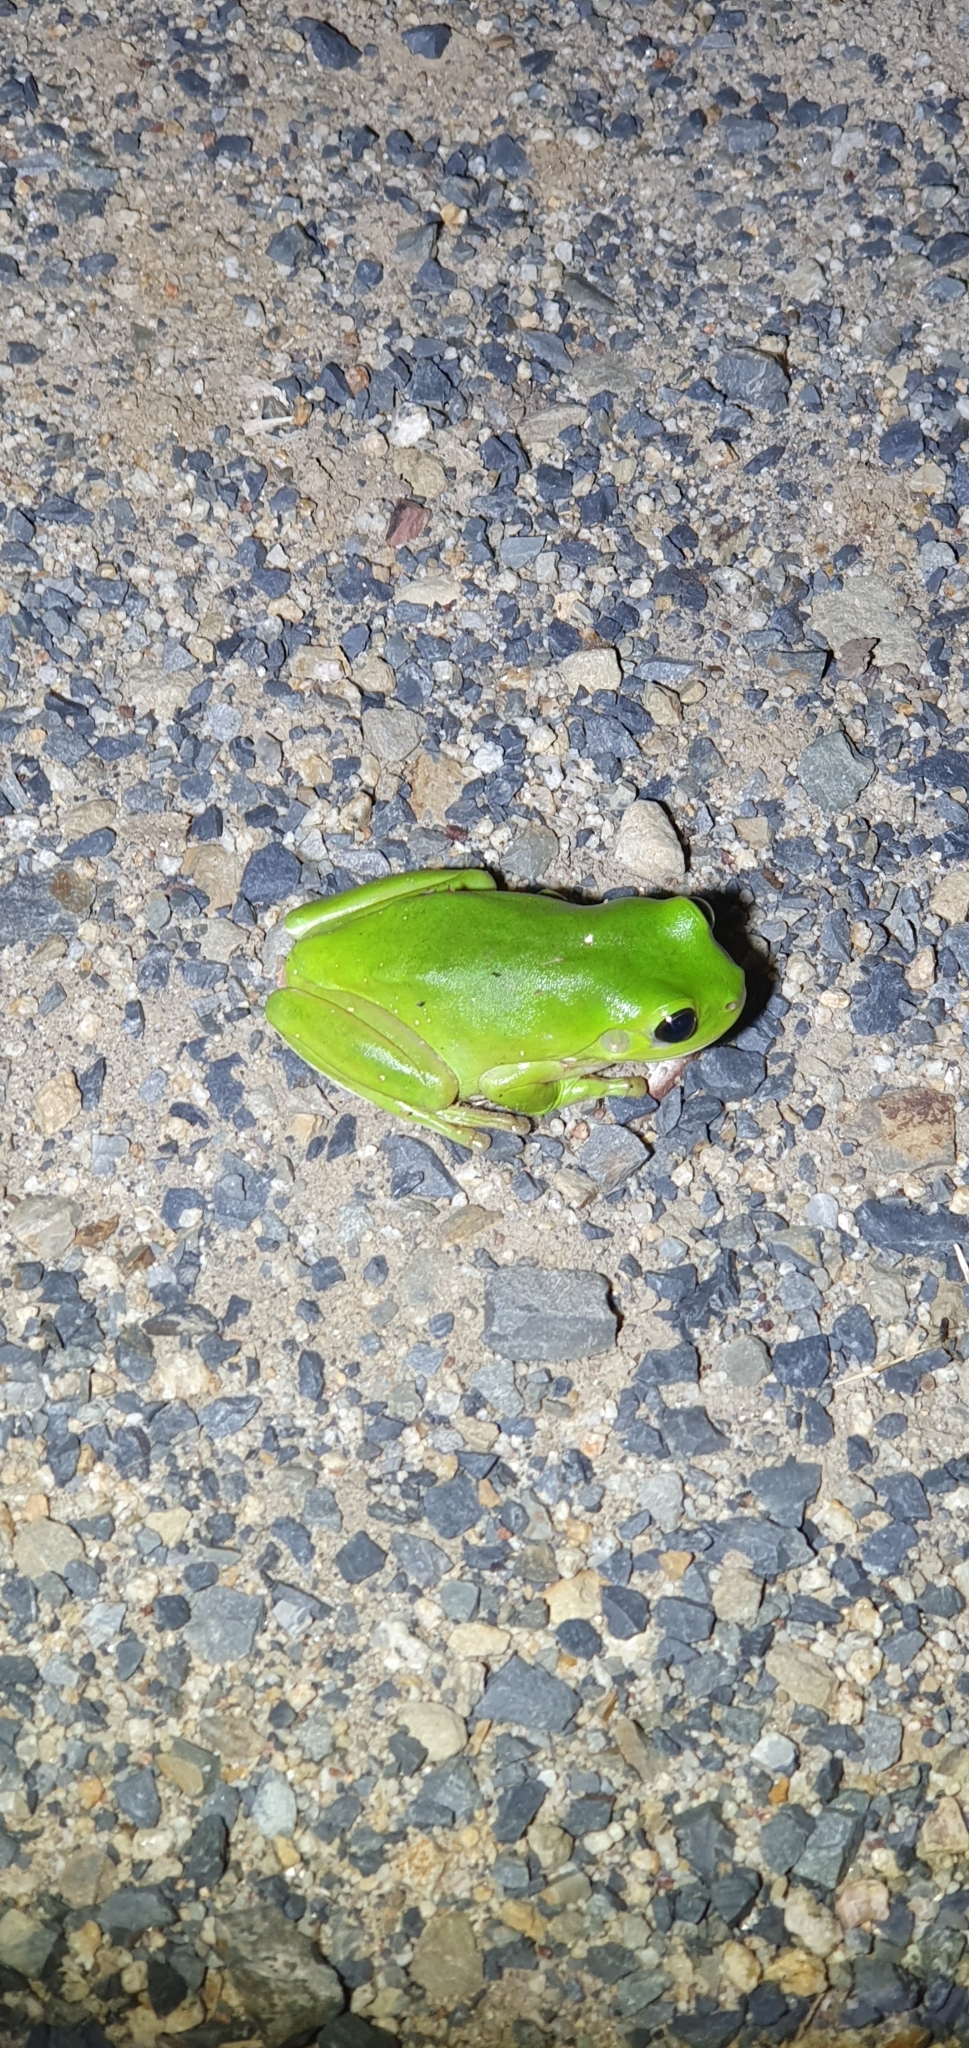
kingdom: Animalia
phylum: Chordata
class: Amphibia
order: Anura
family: Pelodryadidae
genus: Ranoidea
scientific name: Ranoidea caerulea
